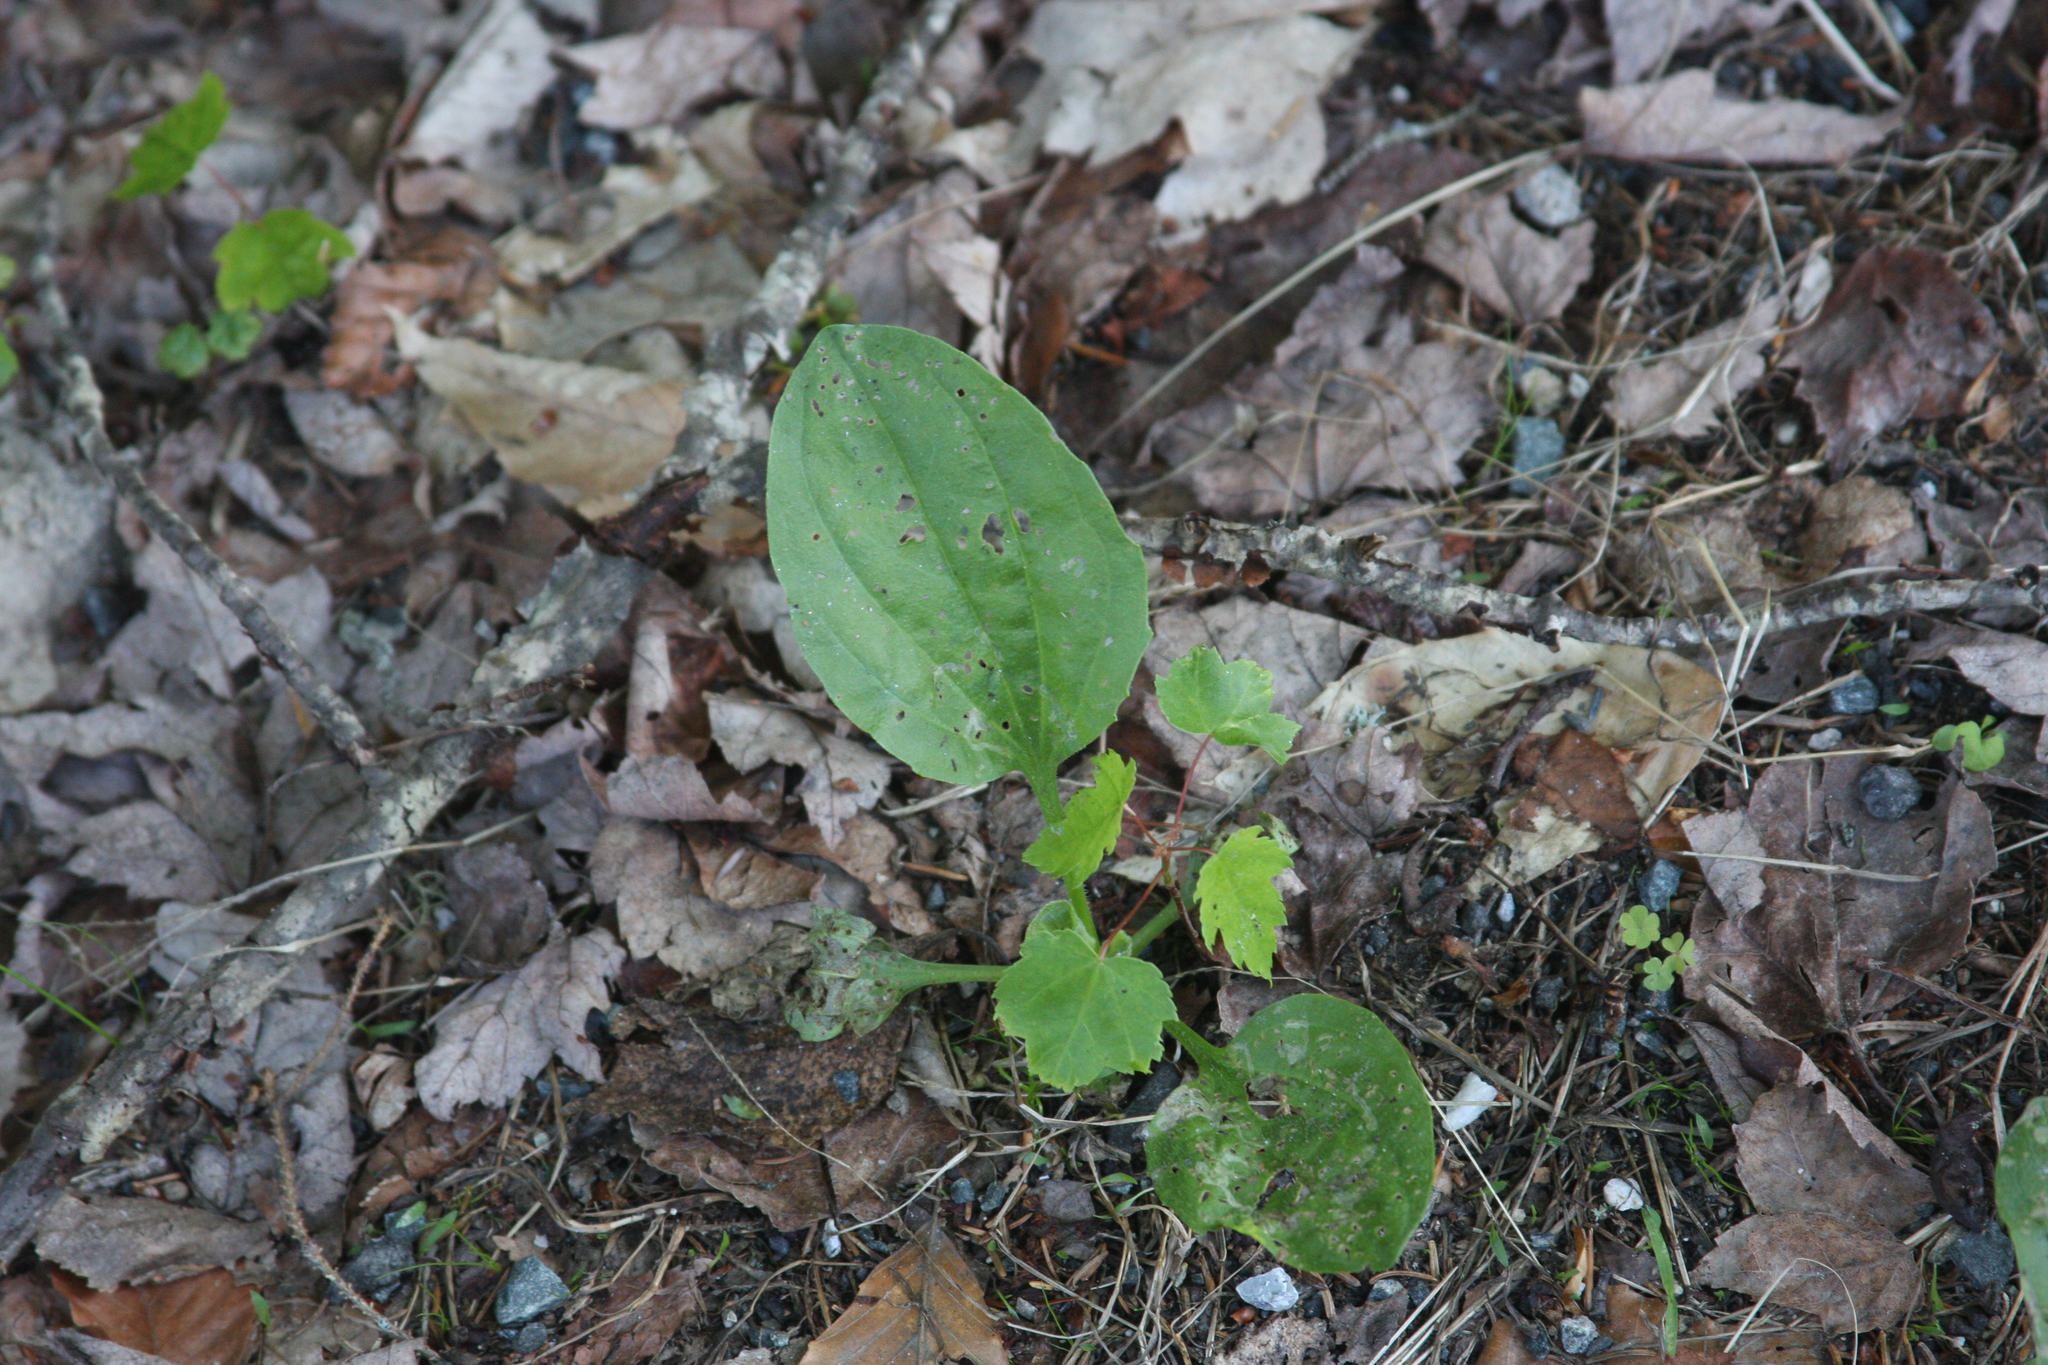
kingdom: Plantae
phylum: Tracheophyta
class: Magnoliopsida
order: Sapindales
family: Sapindaceae
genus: Acer
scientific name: Acer rubrum
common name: Red maple
